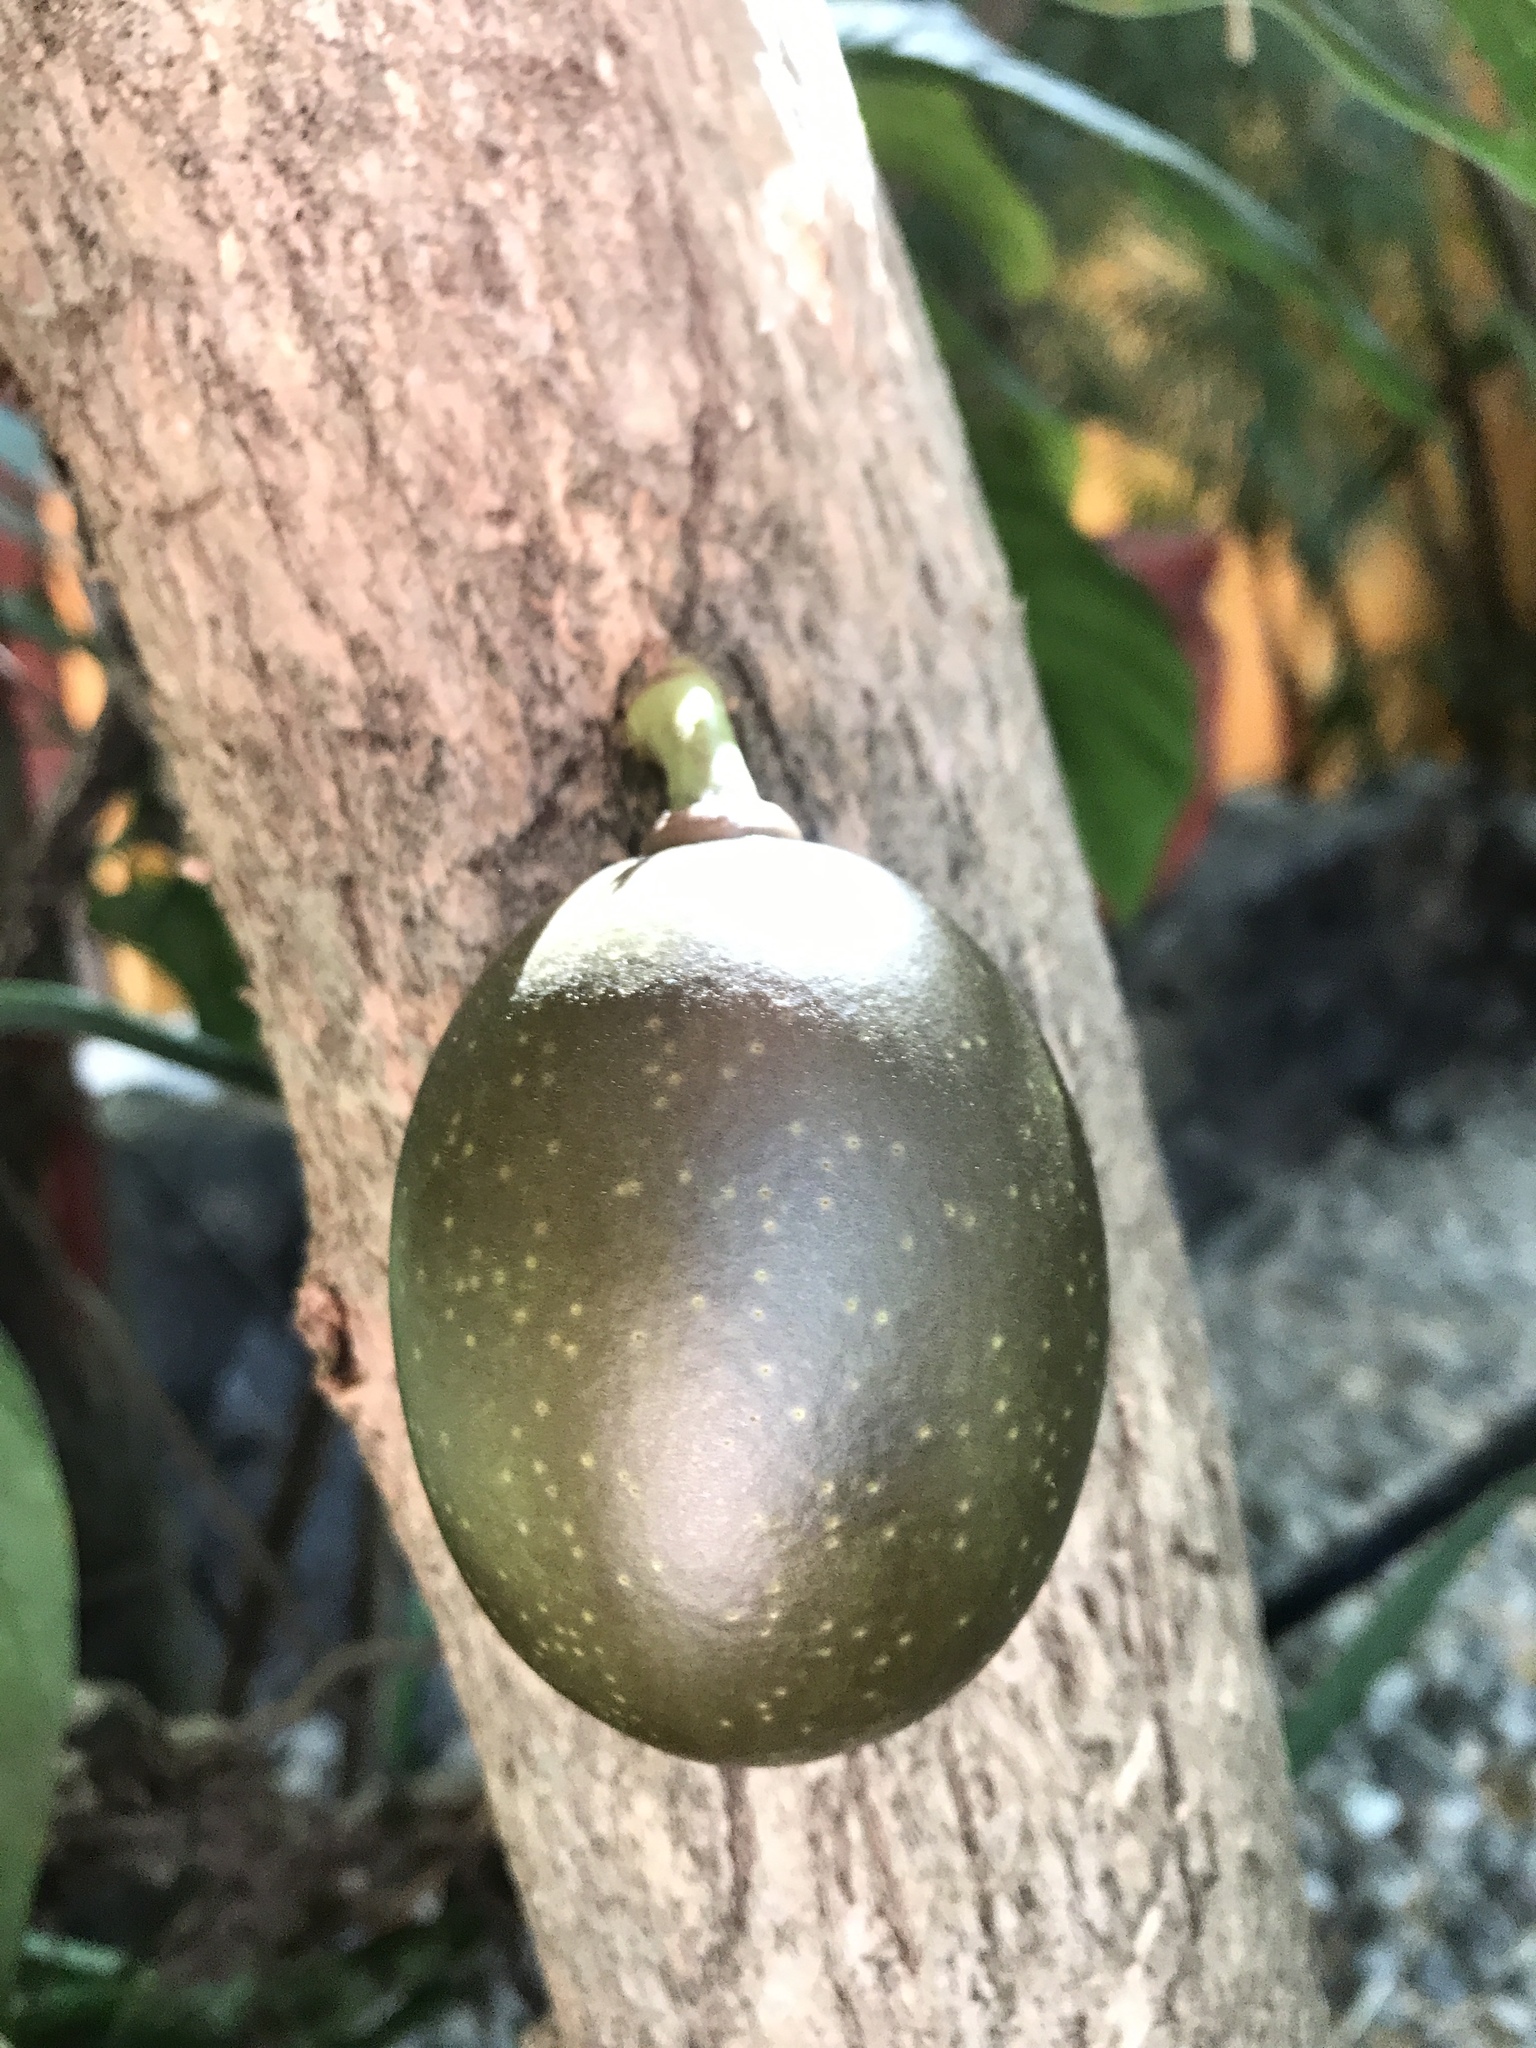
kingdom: Plantae
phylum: Tracheophyta
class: Magnoliopsida
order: Lamiales
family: Bignoniaceae
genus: Crescentia
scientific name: Crescentia cujete
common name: Calabash
